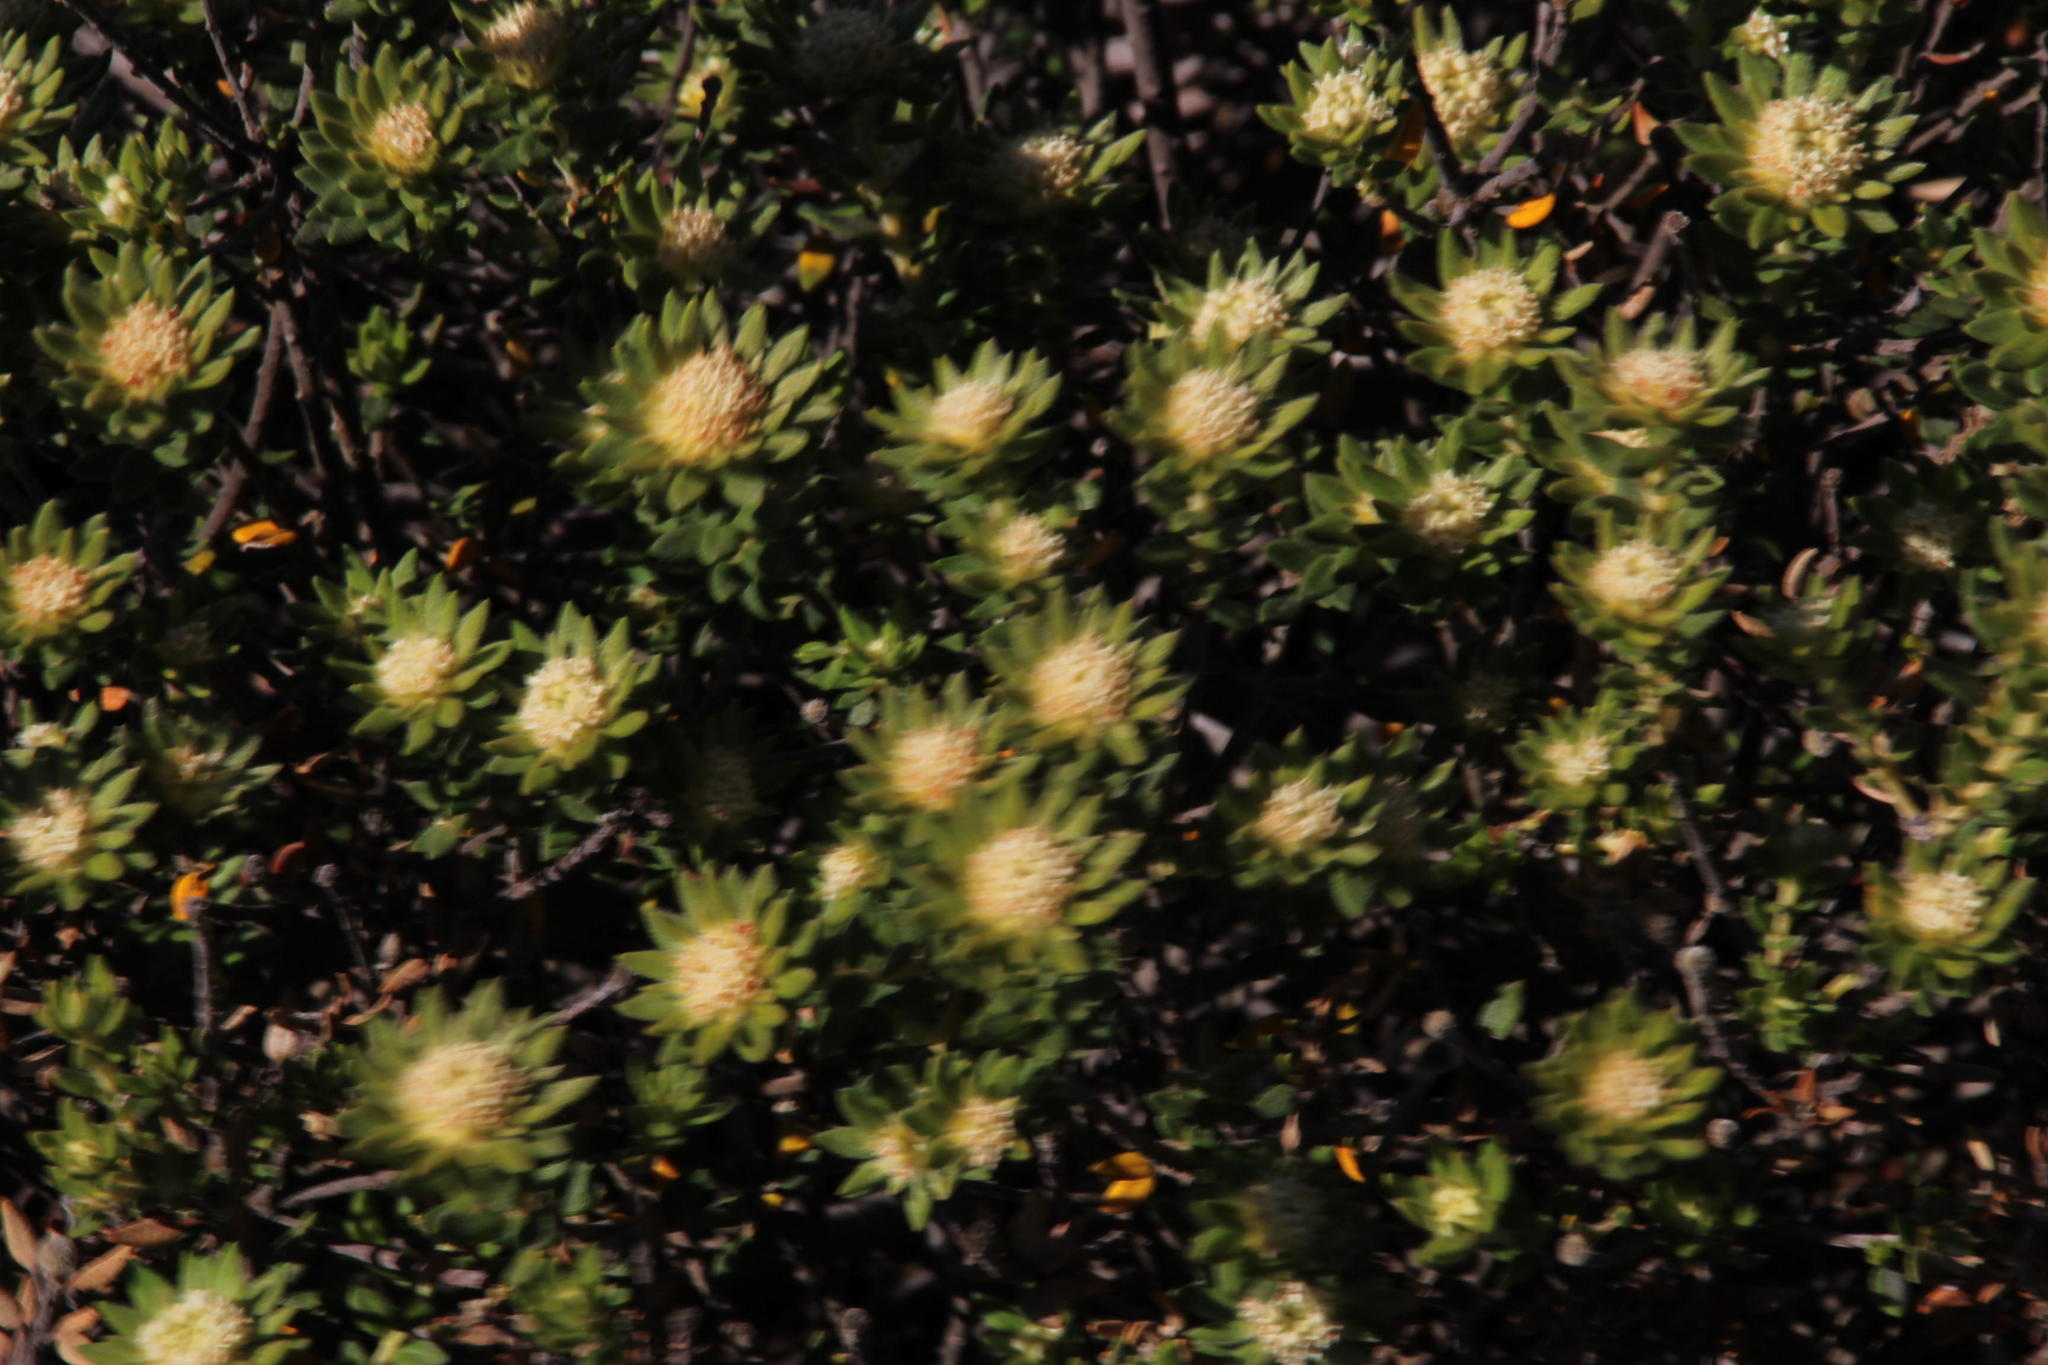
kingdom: Plantae
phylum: Tracheophyta
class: Magnoliopsida
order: Rosales
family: Rhamnaceae
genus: Phylica
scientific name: Phylica dioica
